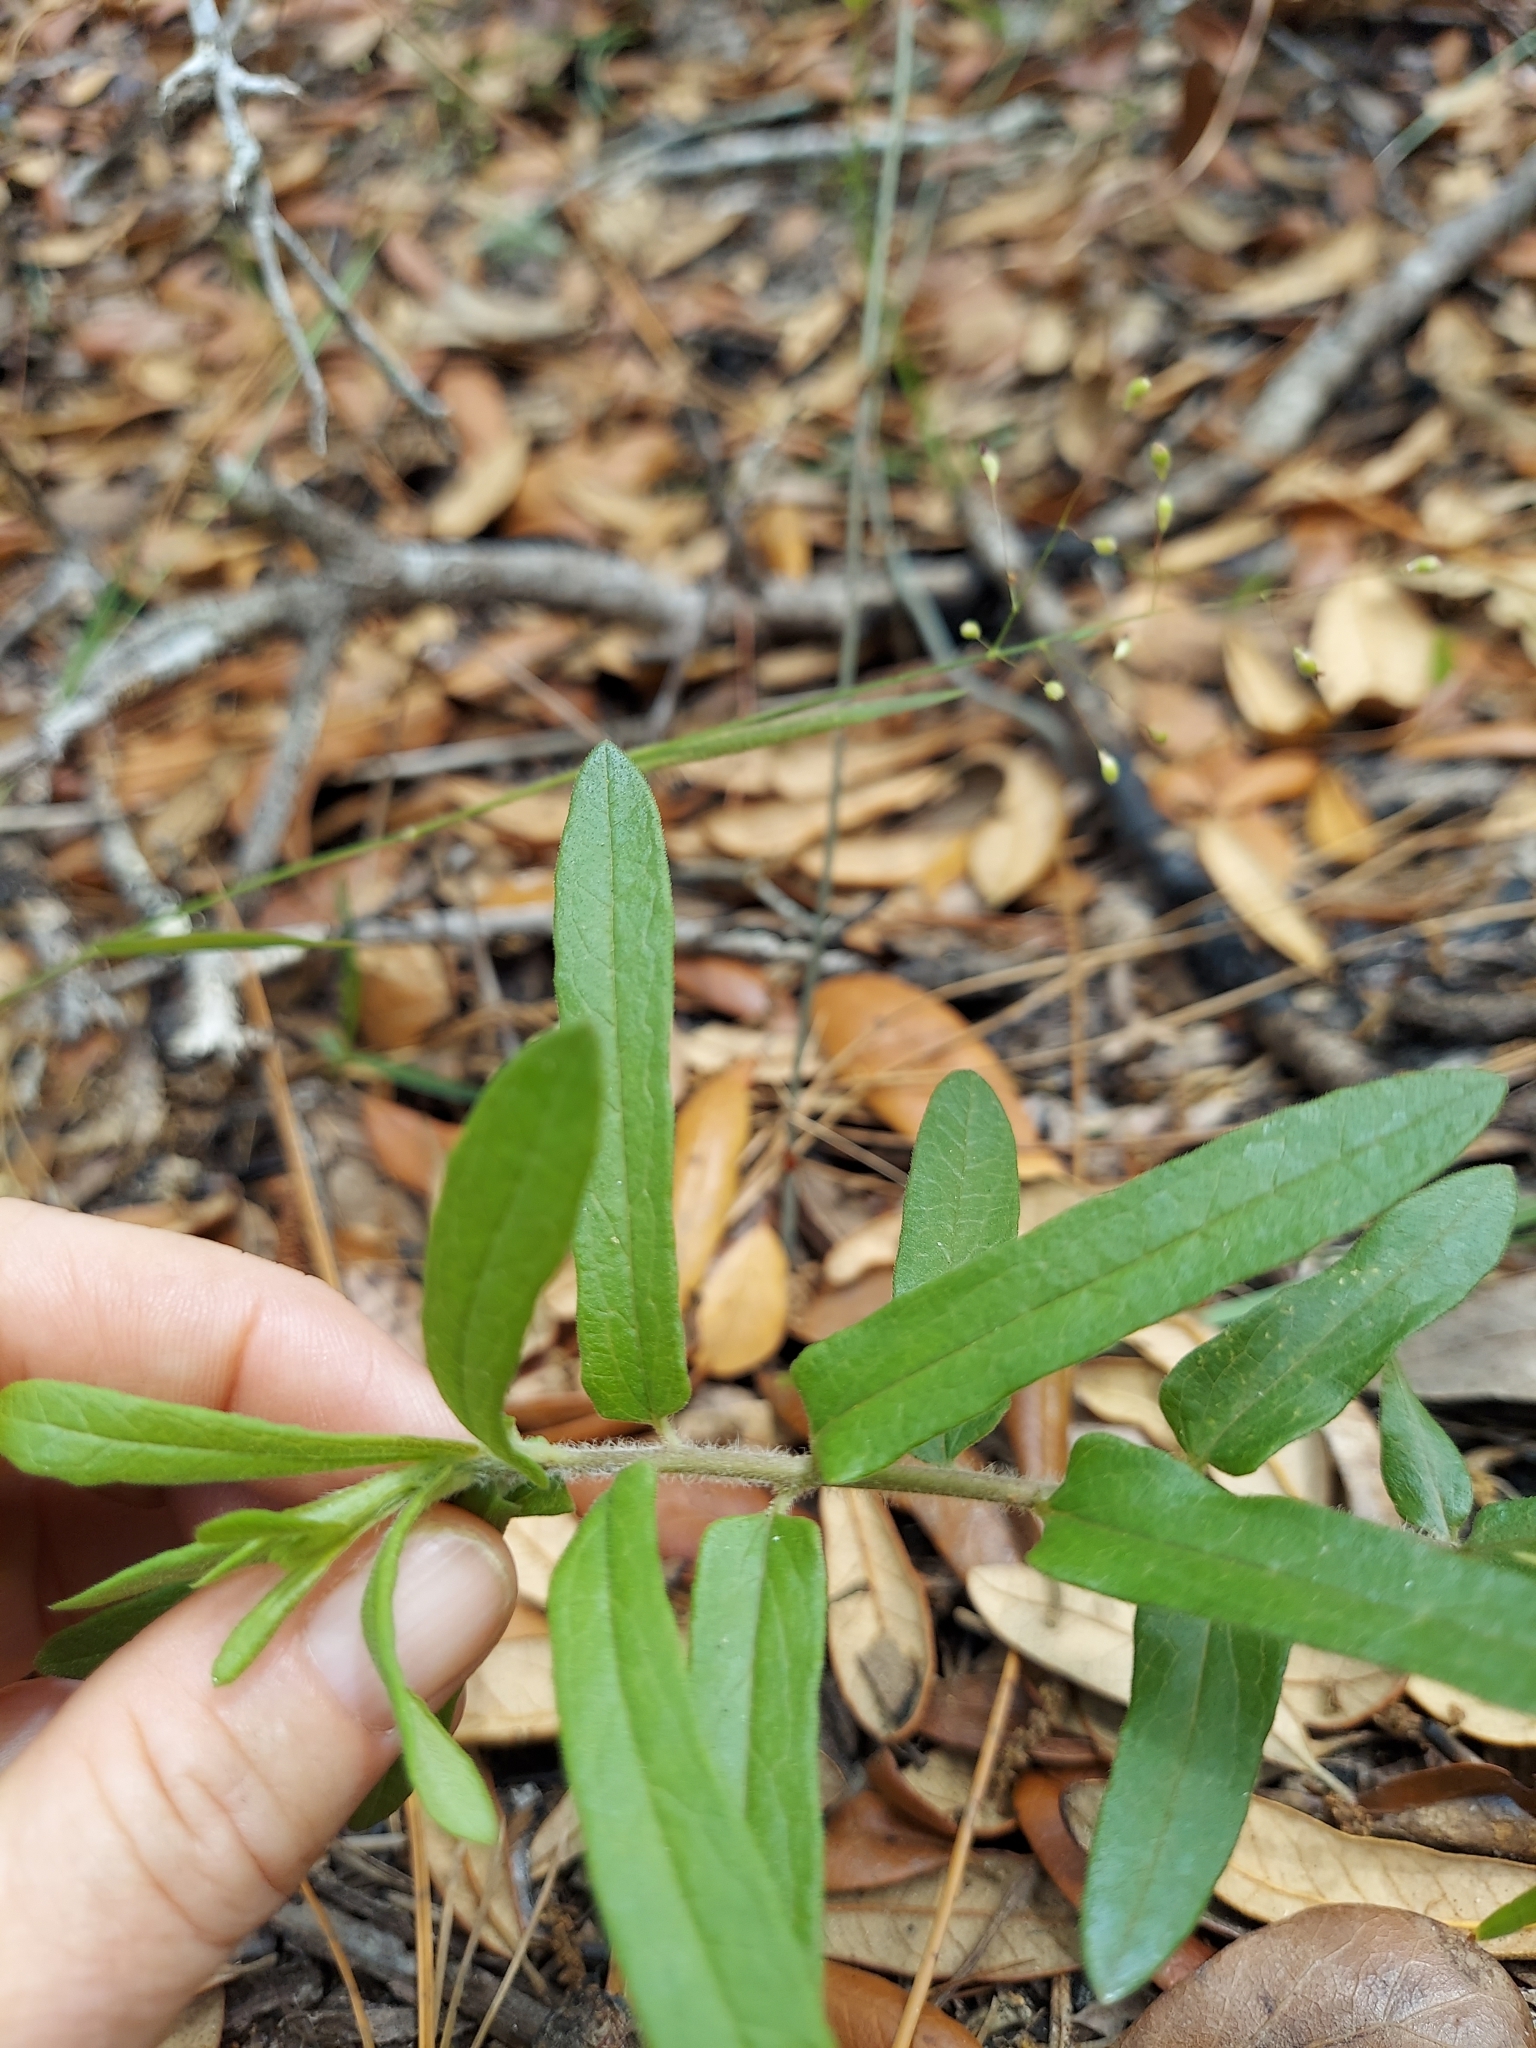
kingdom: Plantae
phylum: Tracheophyta
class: Magnoliopsida
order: Gentianales
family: Apocynaceae
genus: Asclepias
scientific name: Asclepias tuberosa
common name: Butterfly milkweed
